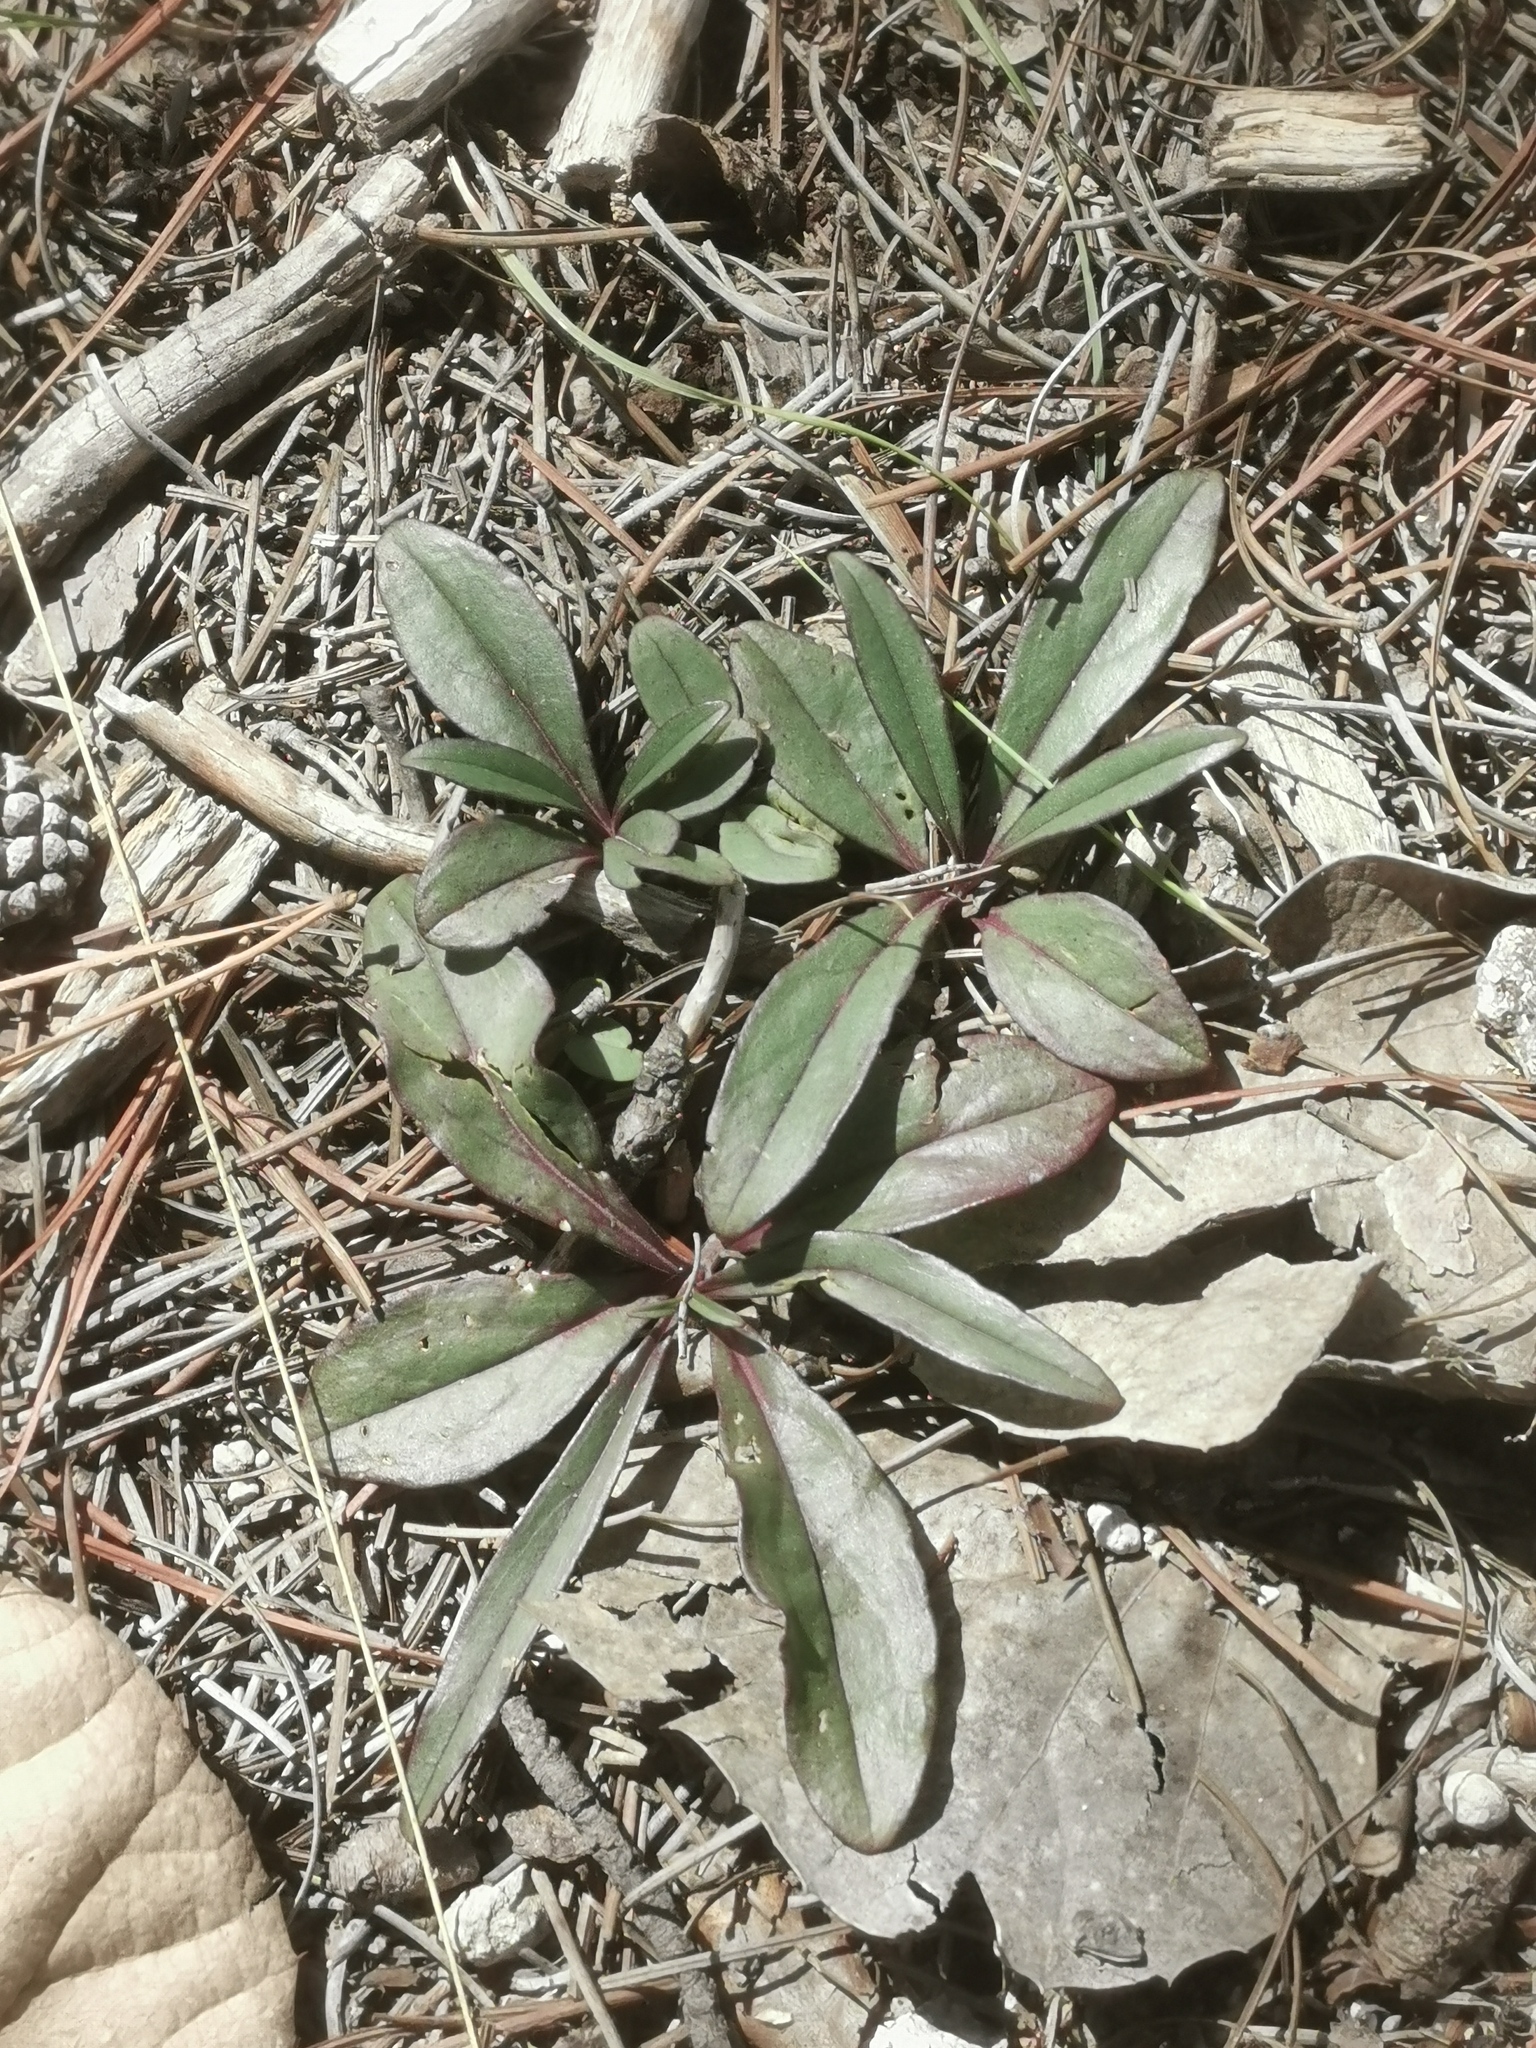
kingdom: Plantae
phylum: Tracheophyta
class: Magnoliopsida
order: Lamiales
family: Plantaginaceae
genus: Penstemon
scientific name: Penstemon plagapineus
